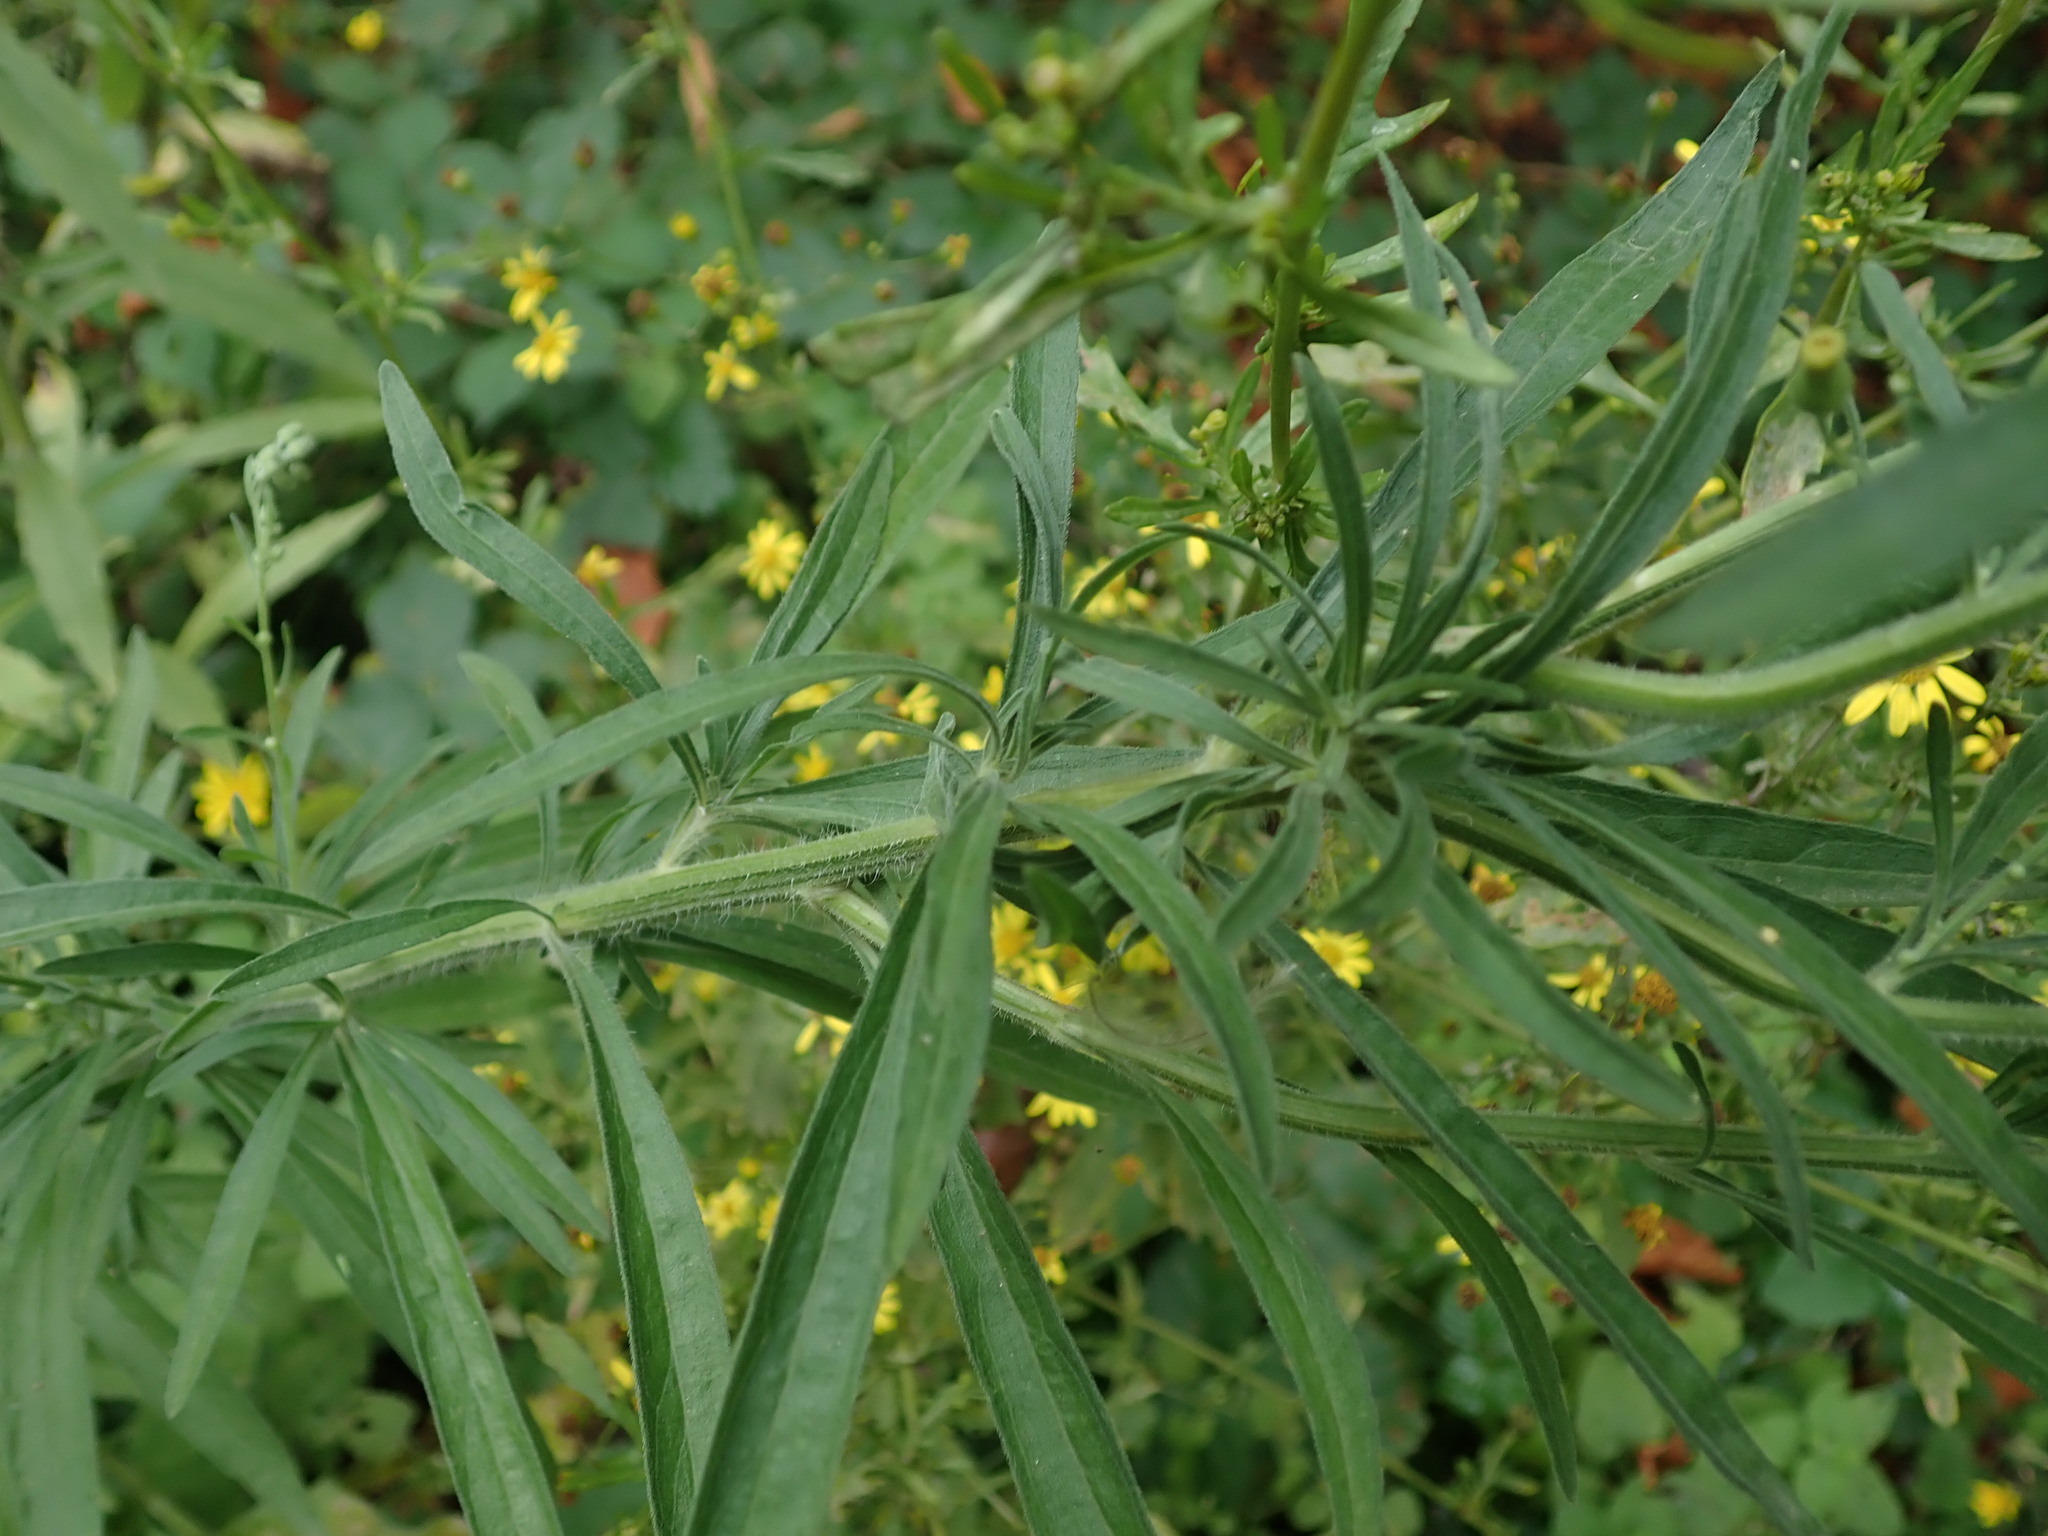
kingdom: Plantae
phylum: Tracheophyta
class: Magnoliopsida
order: Asterales
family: Asteraceae
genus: Erigeron
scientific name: Erigeron sumatrensis
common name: Daisy
